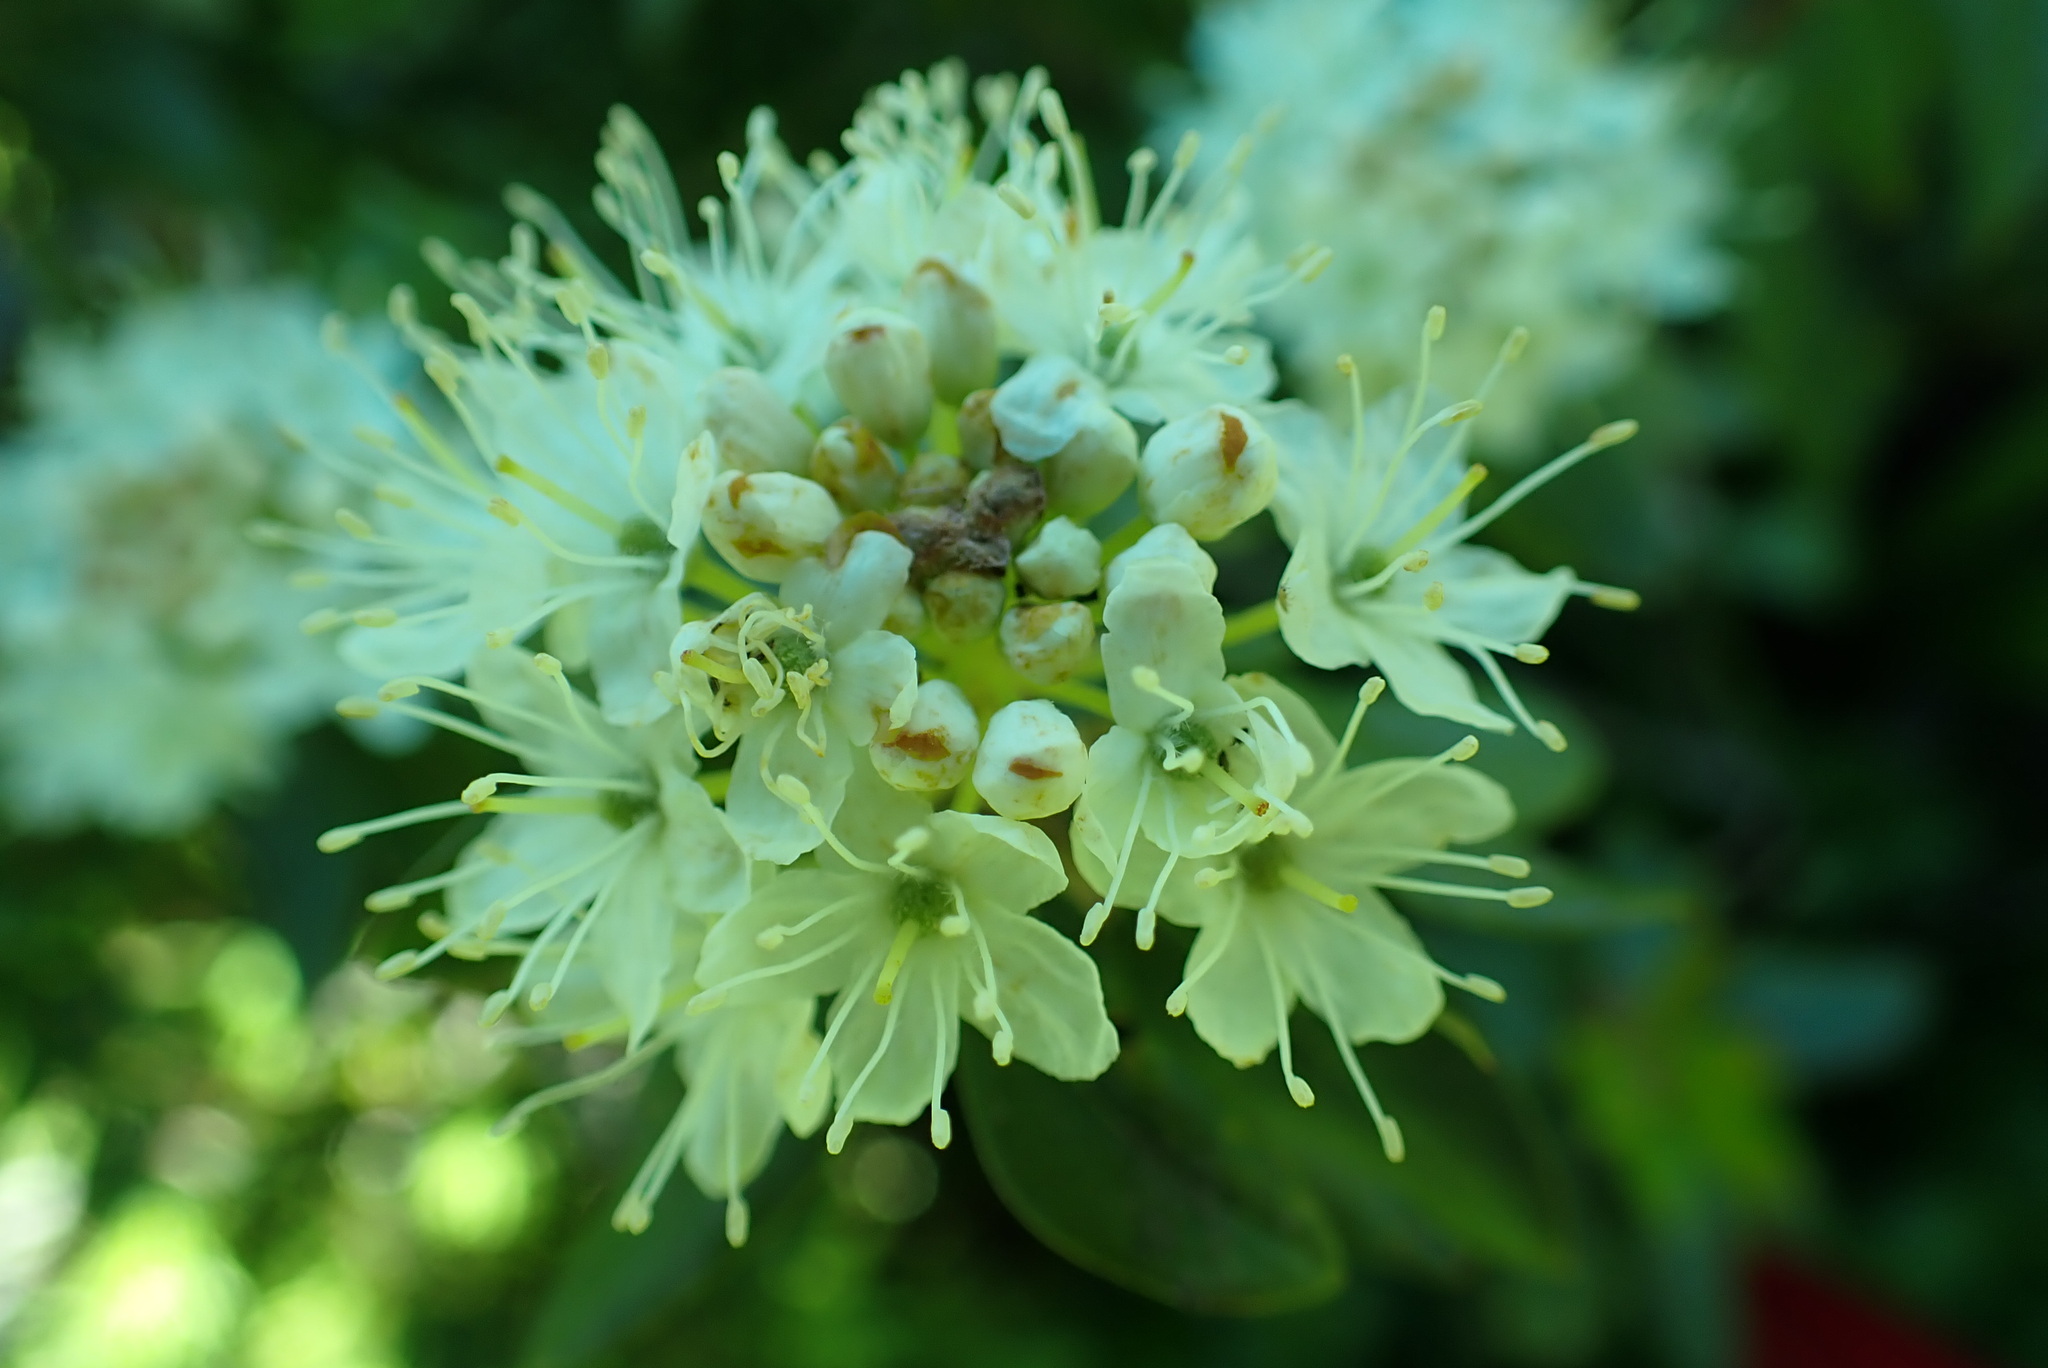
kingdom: Plantae
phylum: Tracheophyta
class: Magnoliopsida
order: Ericales
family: Ericaceae
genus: Rhododendron
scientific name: Rhododendron columbianum
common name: Western labrador tea
